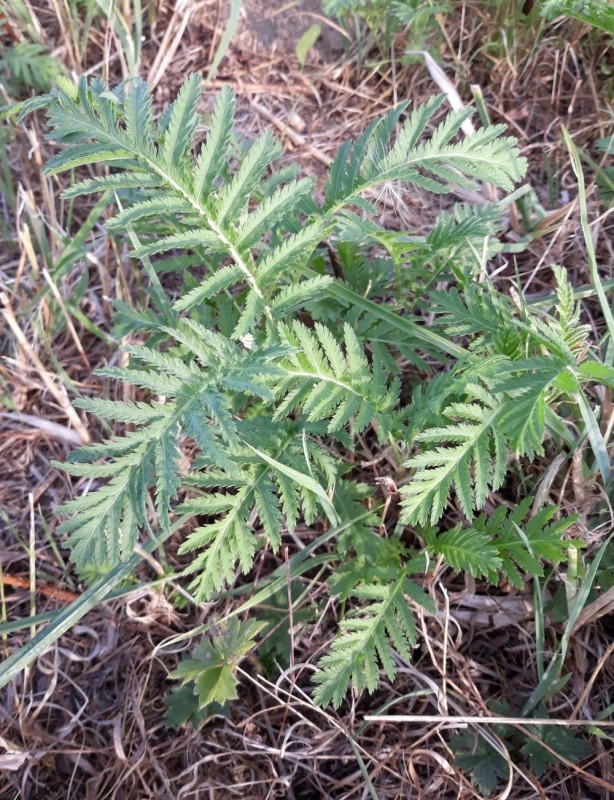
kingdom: Plantae
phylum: Tracheophyta
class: Magnoliopsida
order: Asterales
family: Asteraceae
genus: Tanacetum
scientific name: Tanacetum vulgare
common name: Common tansy
